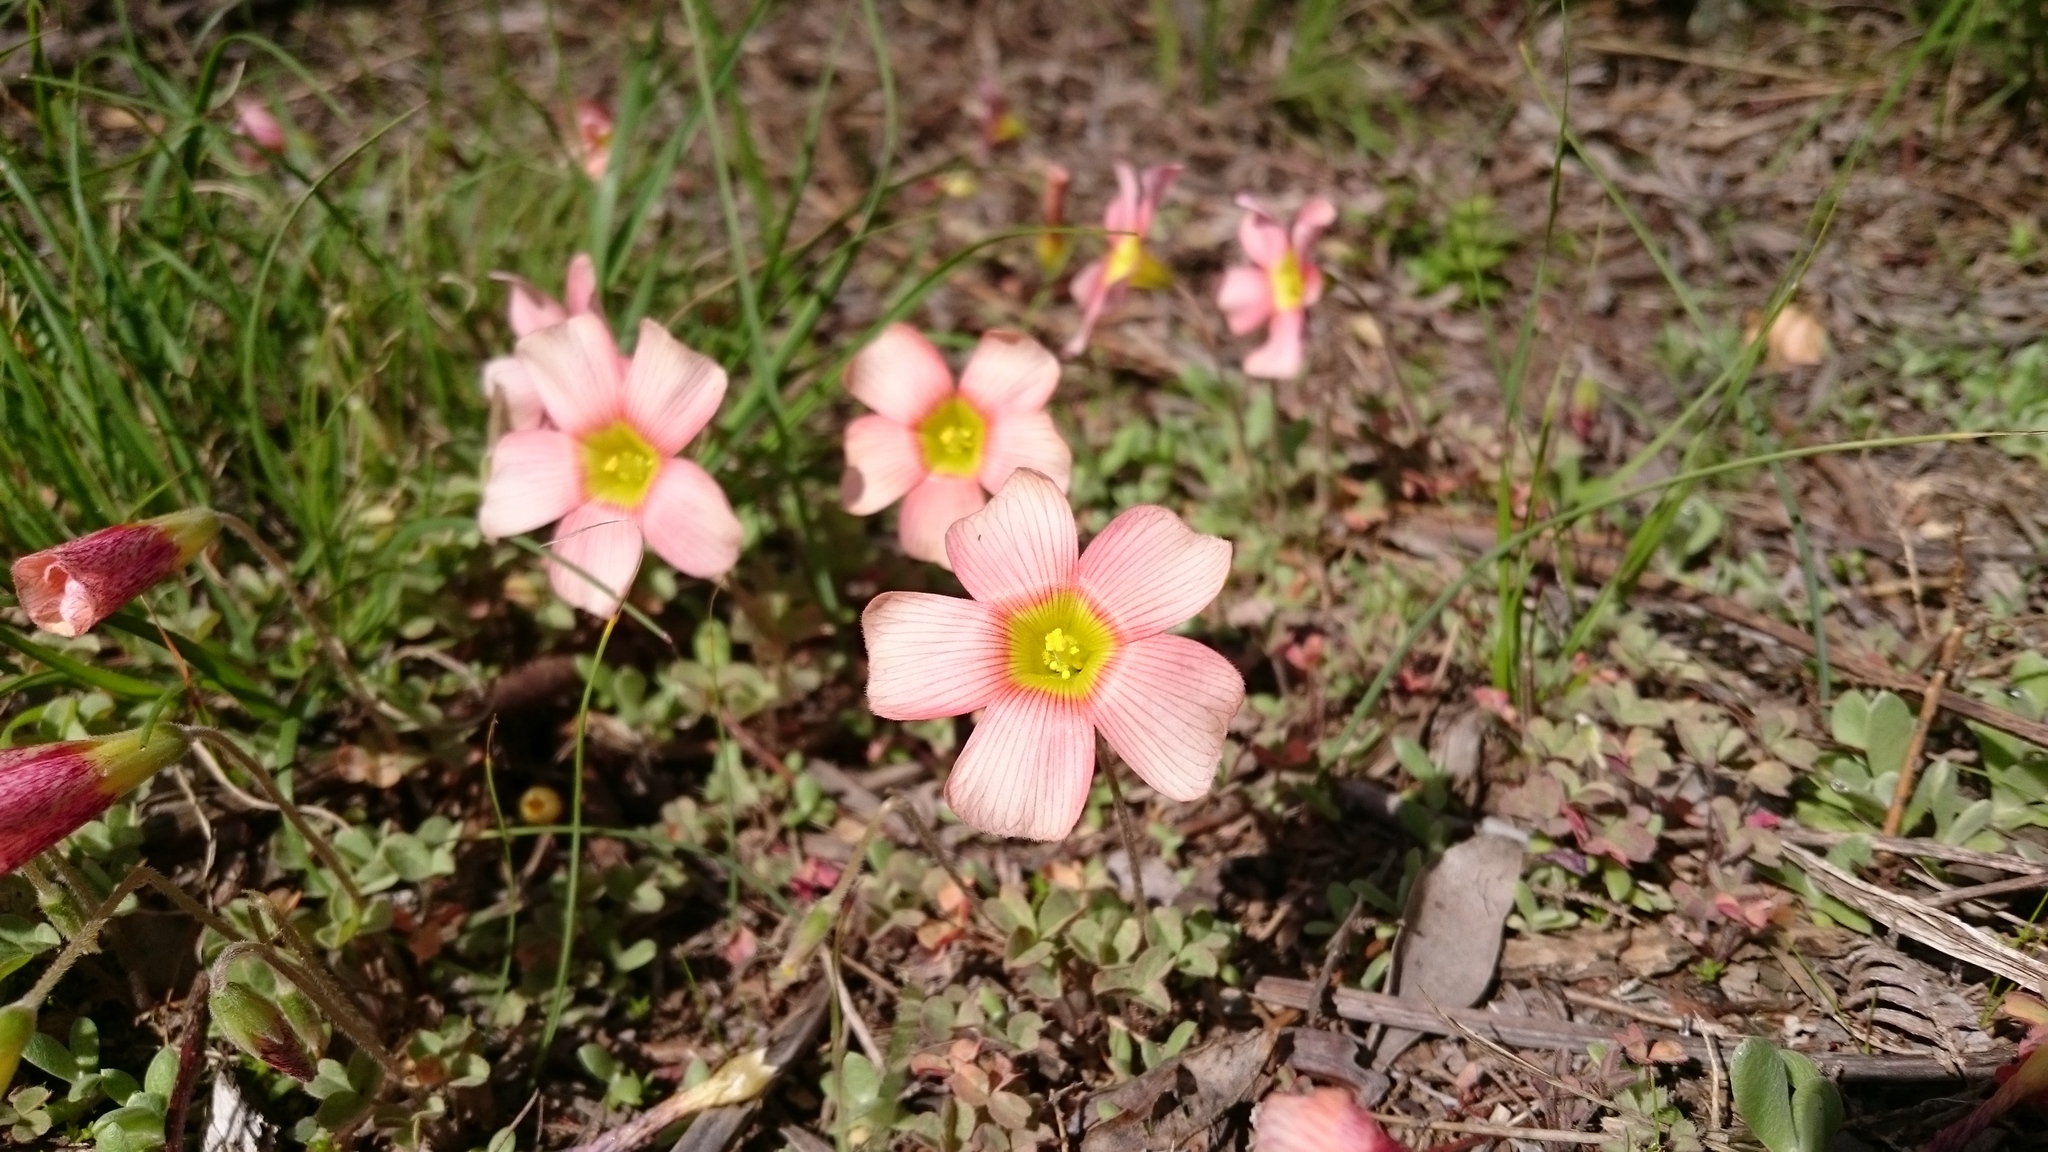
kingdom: Plantae
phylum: Tracheophyta
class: Magnoliopsida
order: Oxalidales
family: Oxalidaceae
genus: Oxalis
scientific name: Oxalis obtusa
